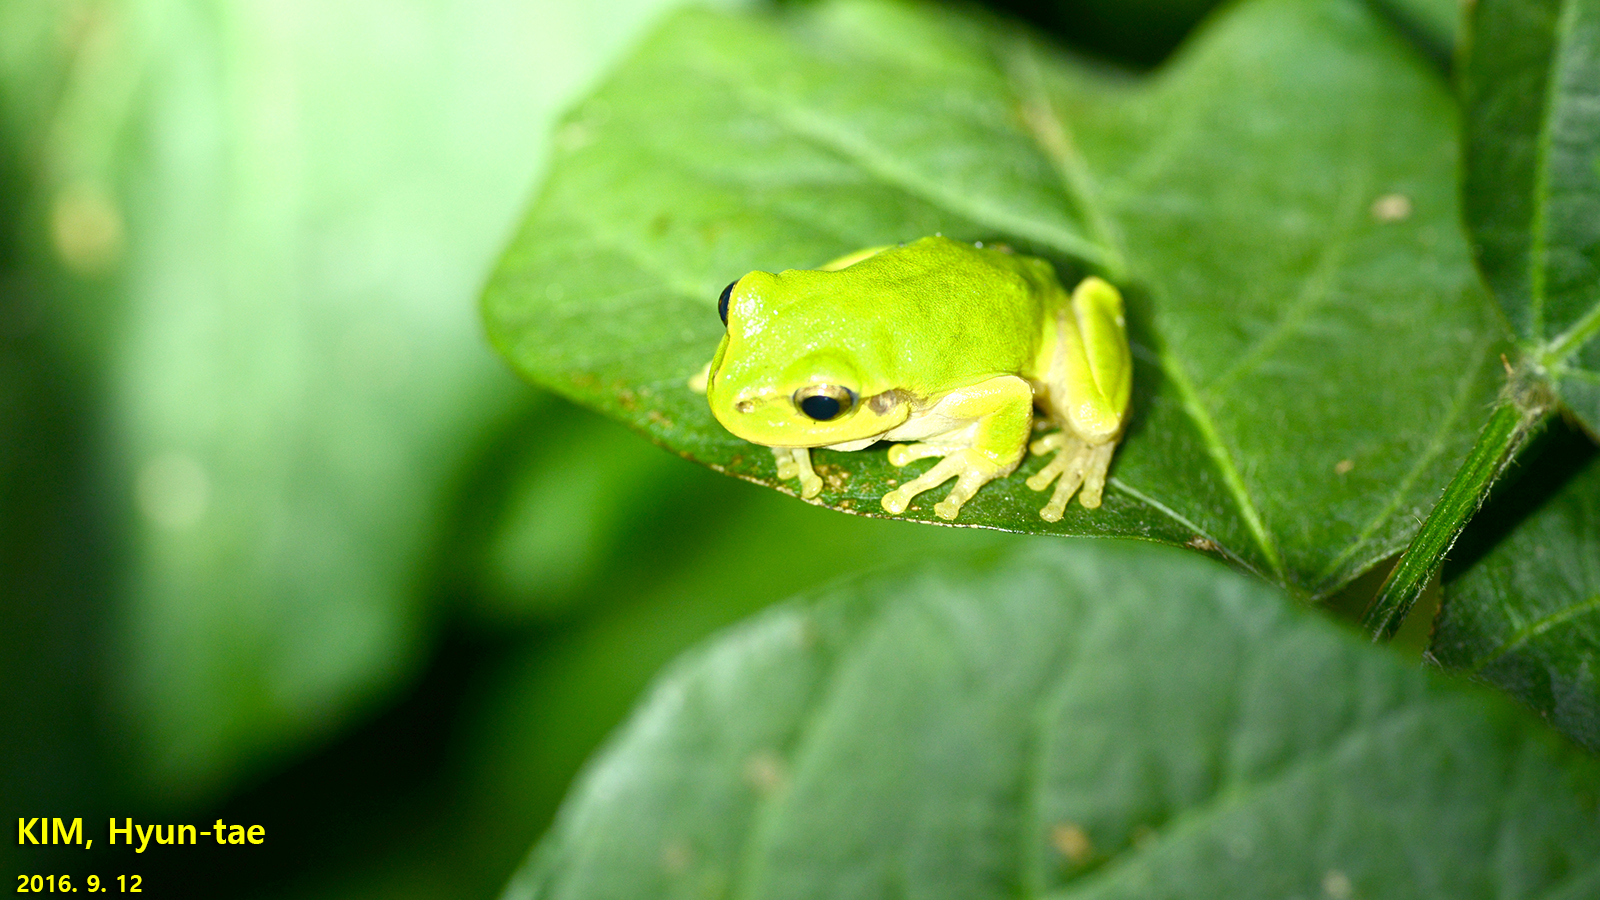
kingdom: Animalia
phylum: Chordata
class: Amphibia
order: Anura
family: Hylidae
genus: Dryophytes
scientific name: Dryophytes japonicus
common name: Japanese treefrog
